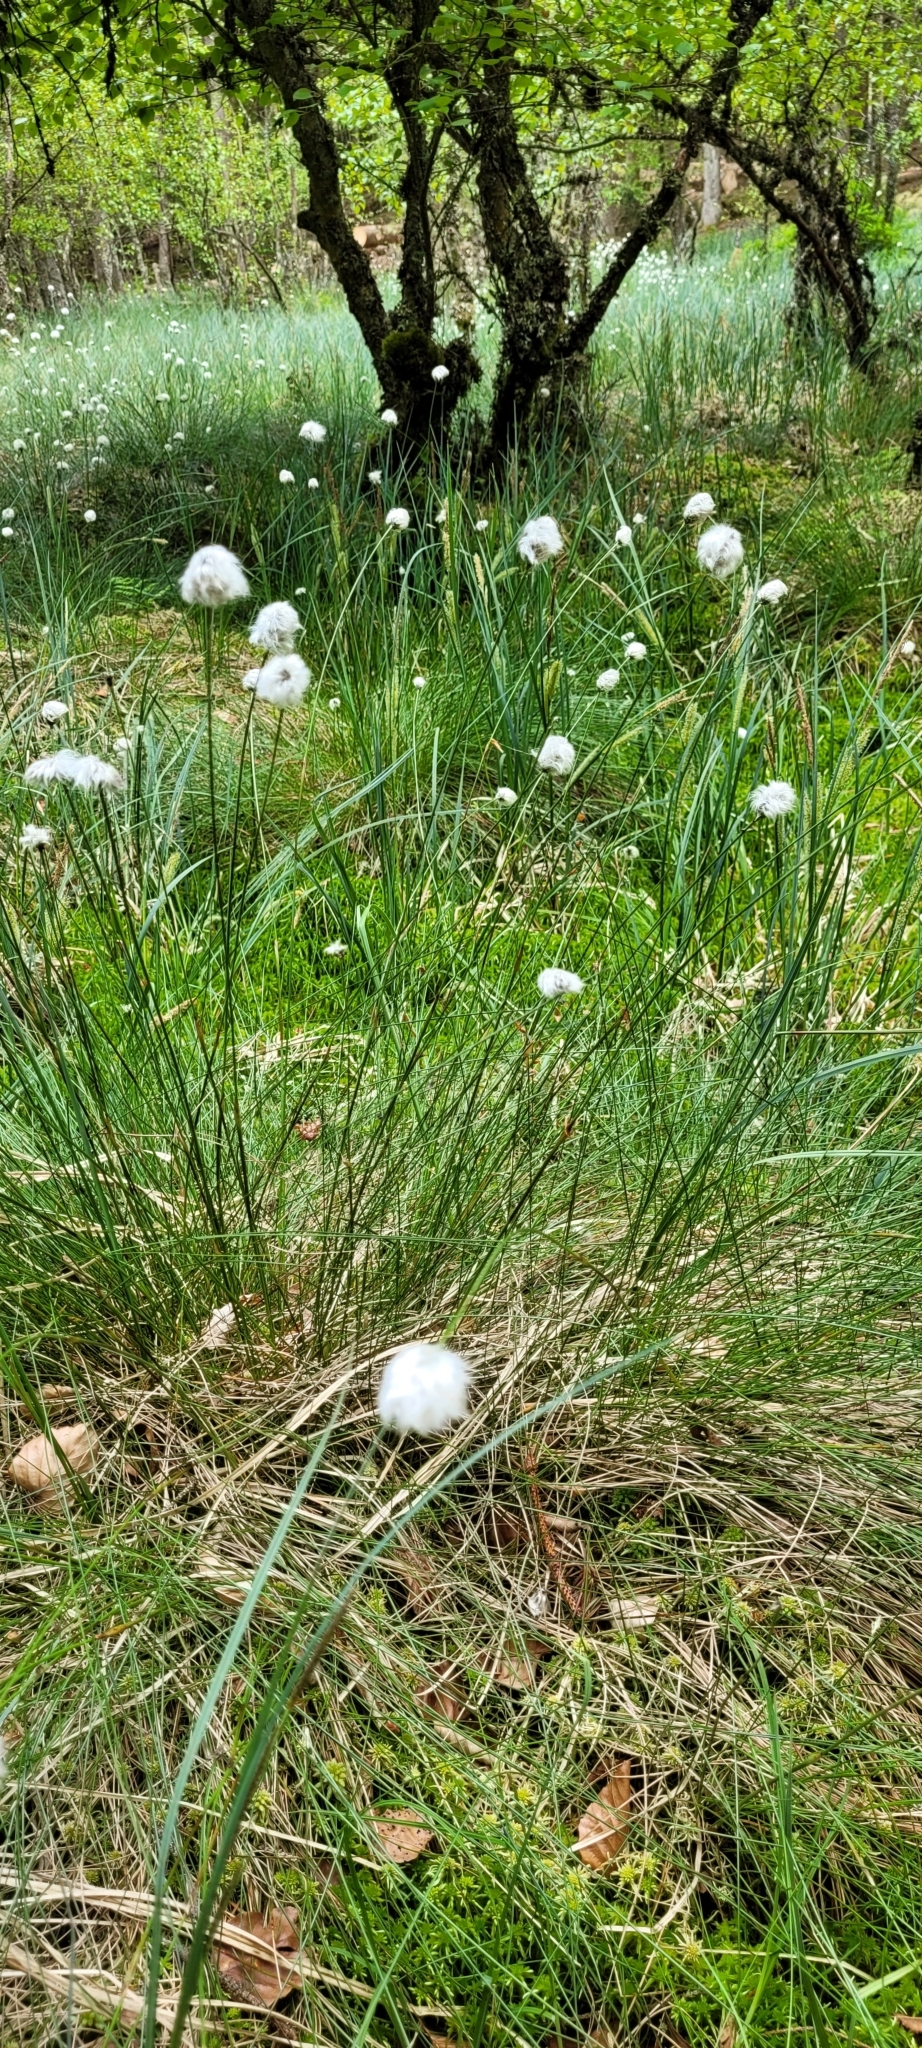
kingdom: Plantae
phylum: Tracheophyta
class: Liliopsida
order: Poales
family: Cyperaceae
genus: Eriophorum
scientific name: Eriophorum vaginatum
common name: Hare's-tail cottongrass
